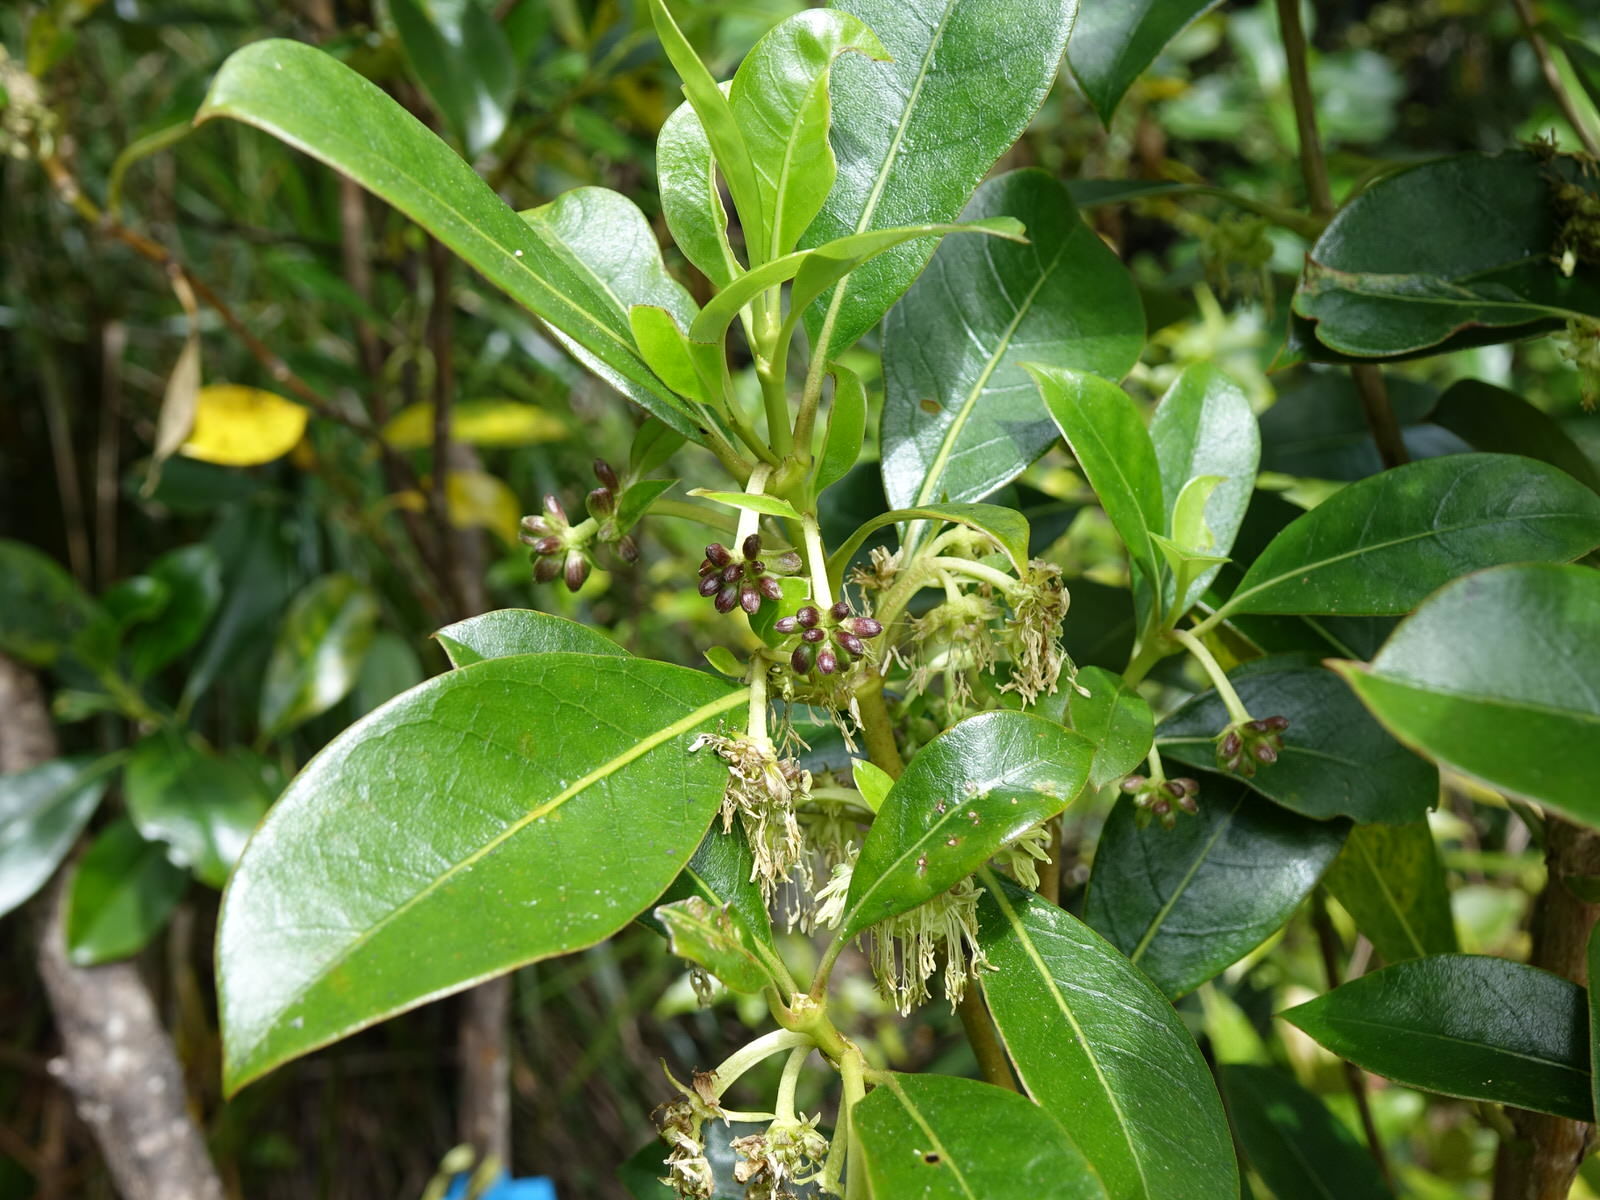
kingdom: Plantae
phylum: Tracheophyta
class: Magnoliopsida
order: Gentianales
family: Rubiaceae
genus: Coprosma
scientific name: Coprosma lucida
